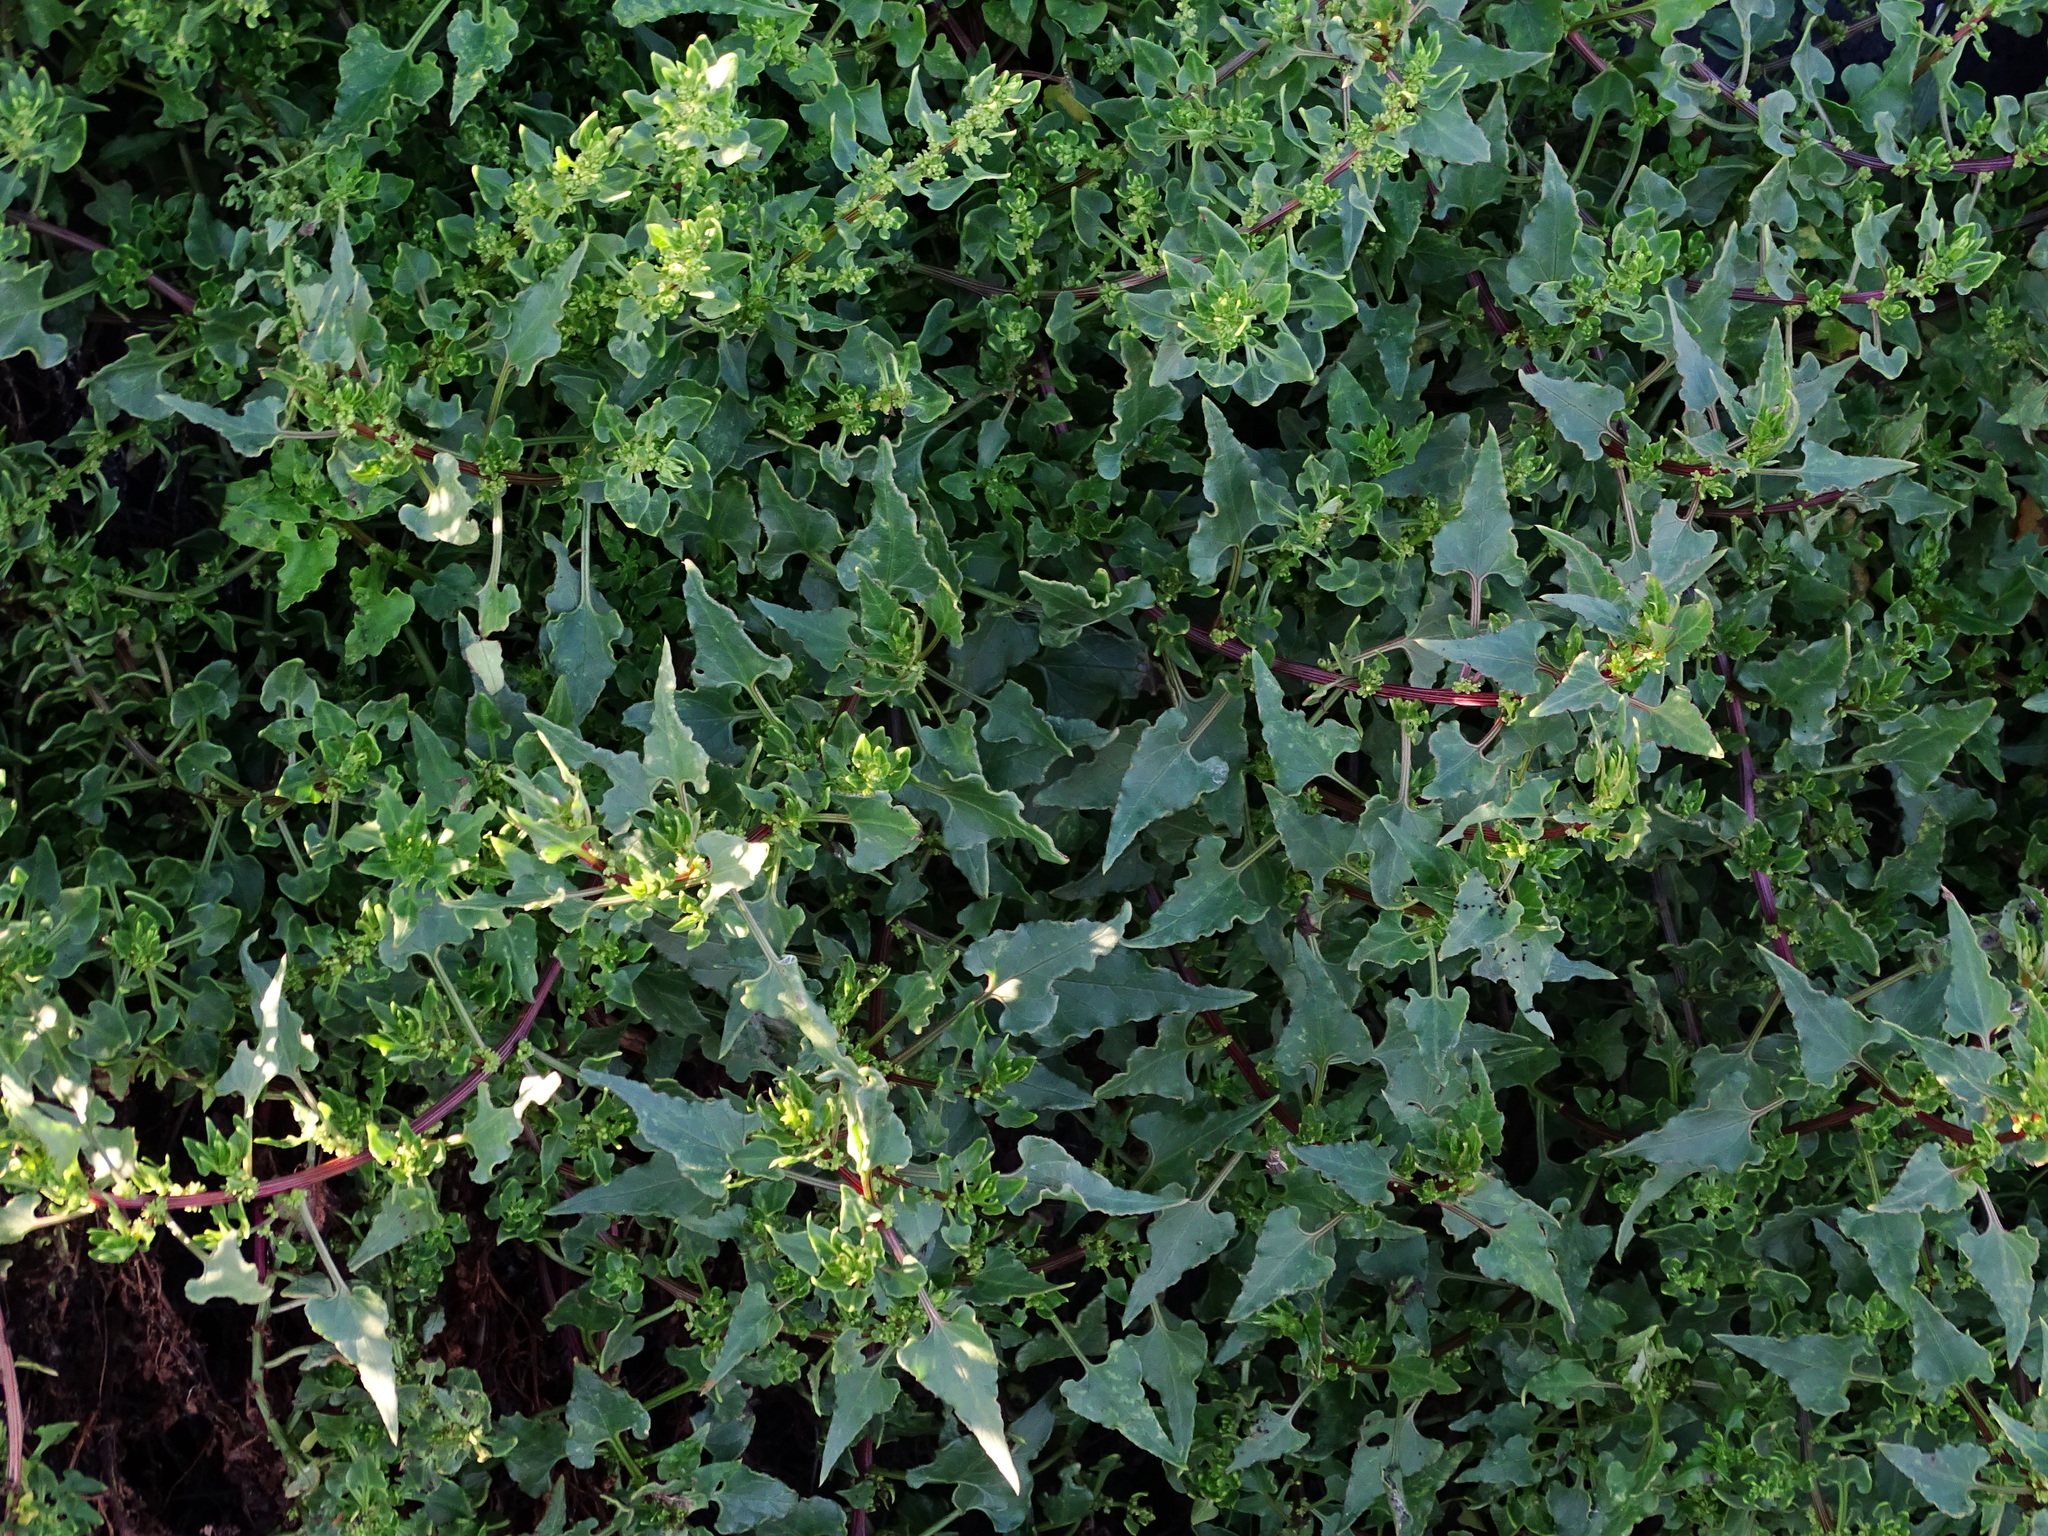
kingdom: Plantae
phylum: Tracheophyta
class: Magnoliopsida
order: Caryophyllales
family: Amaranthaceae
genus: Patellifolia
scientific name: Patellifolia procumbens
